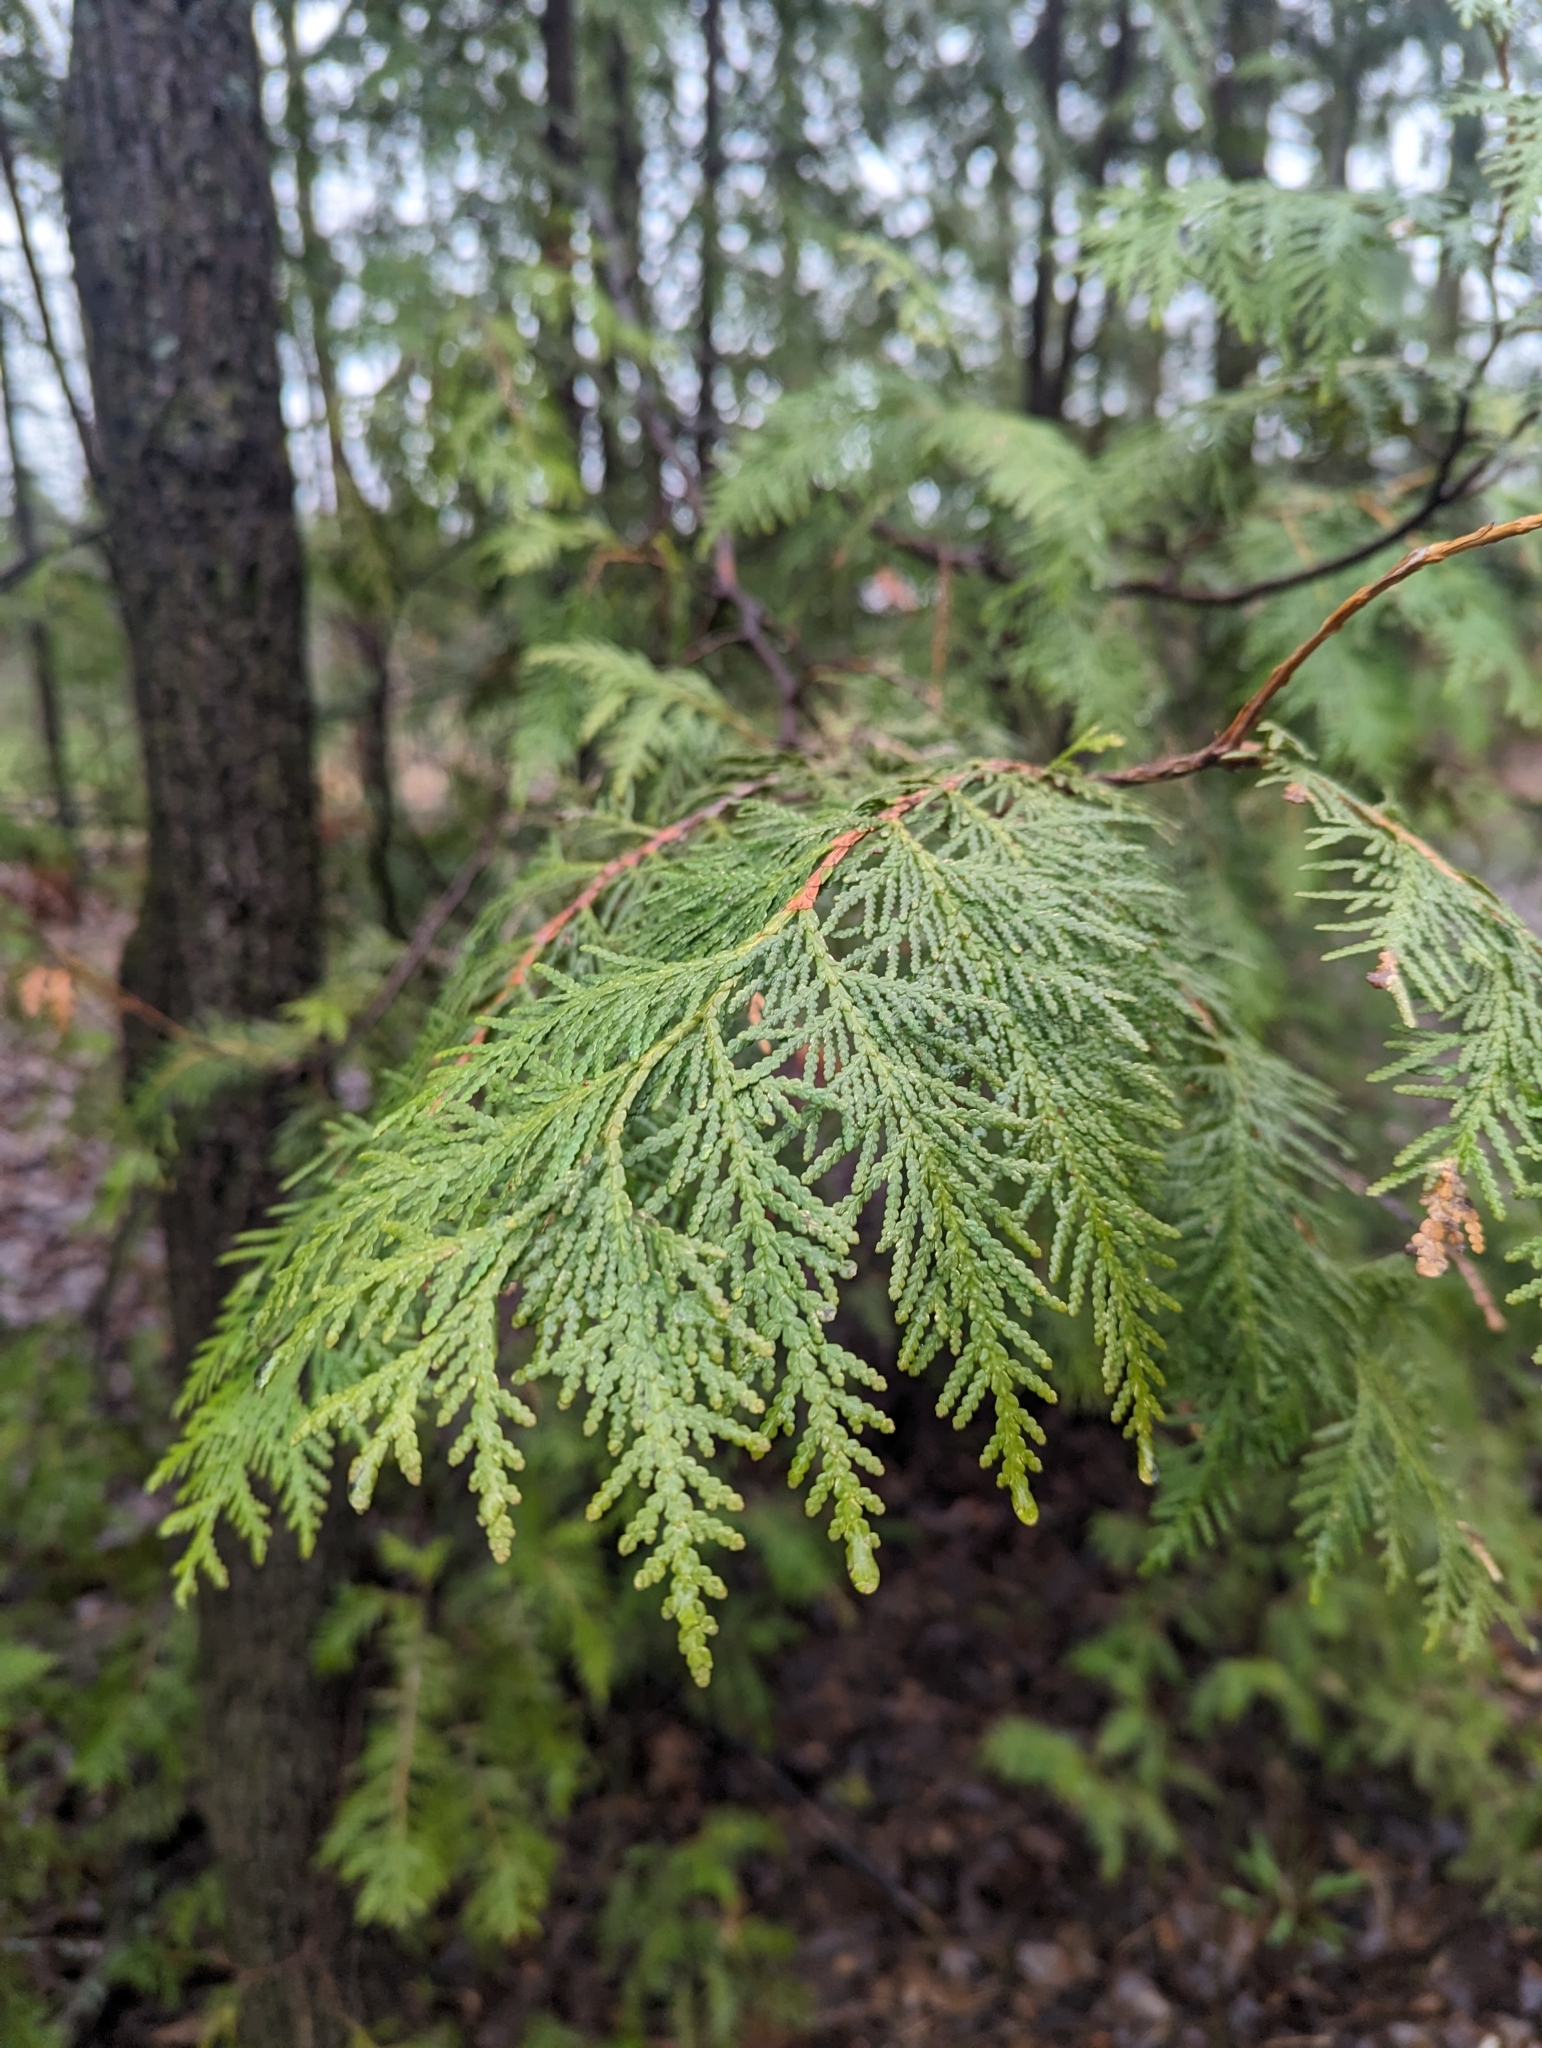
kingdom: Plantae
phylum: Tracheophyta
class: Pinopsida
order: Pinales
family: Cupressaceae
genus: Thuja
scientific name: Thuja occidentalis
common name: Northern white-cedar
